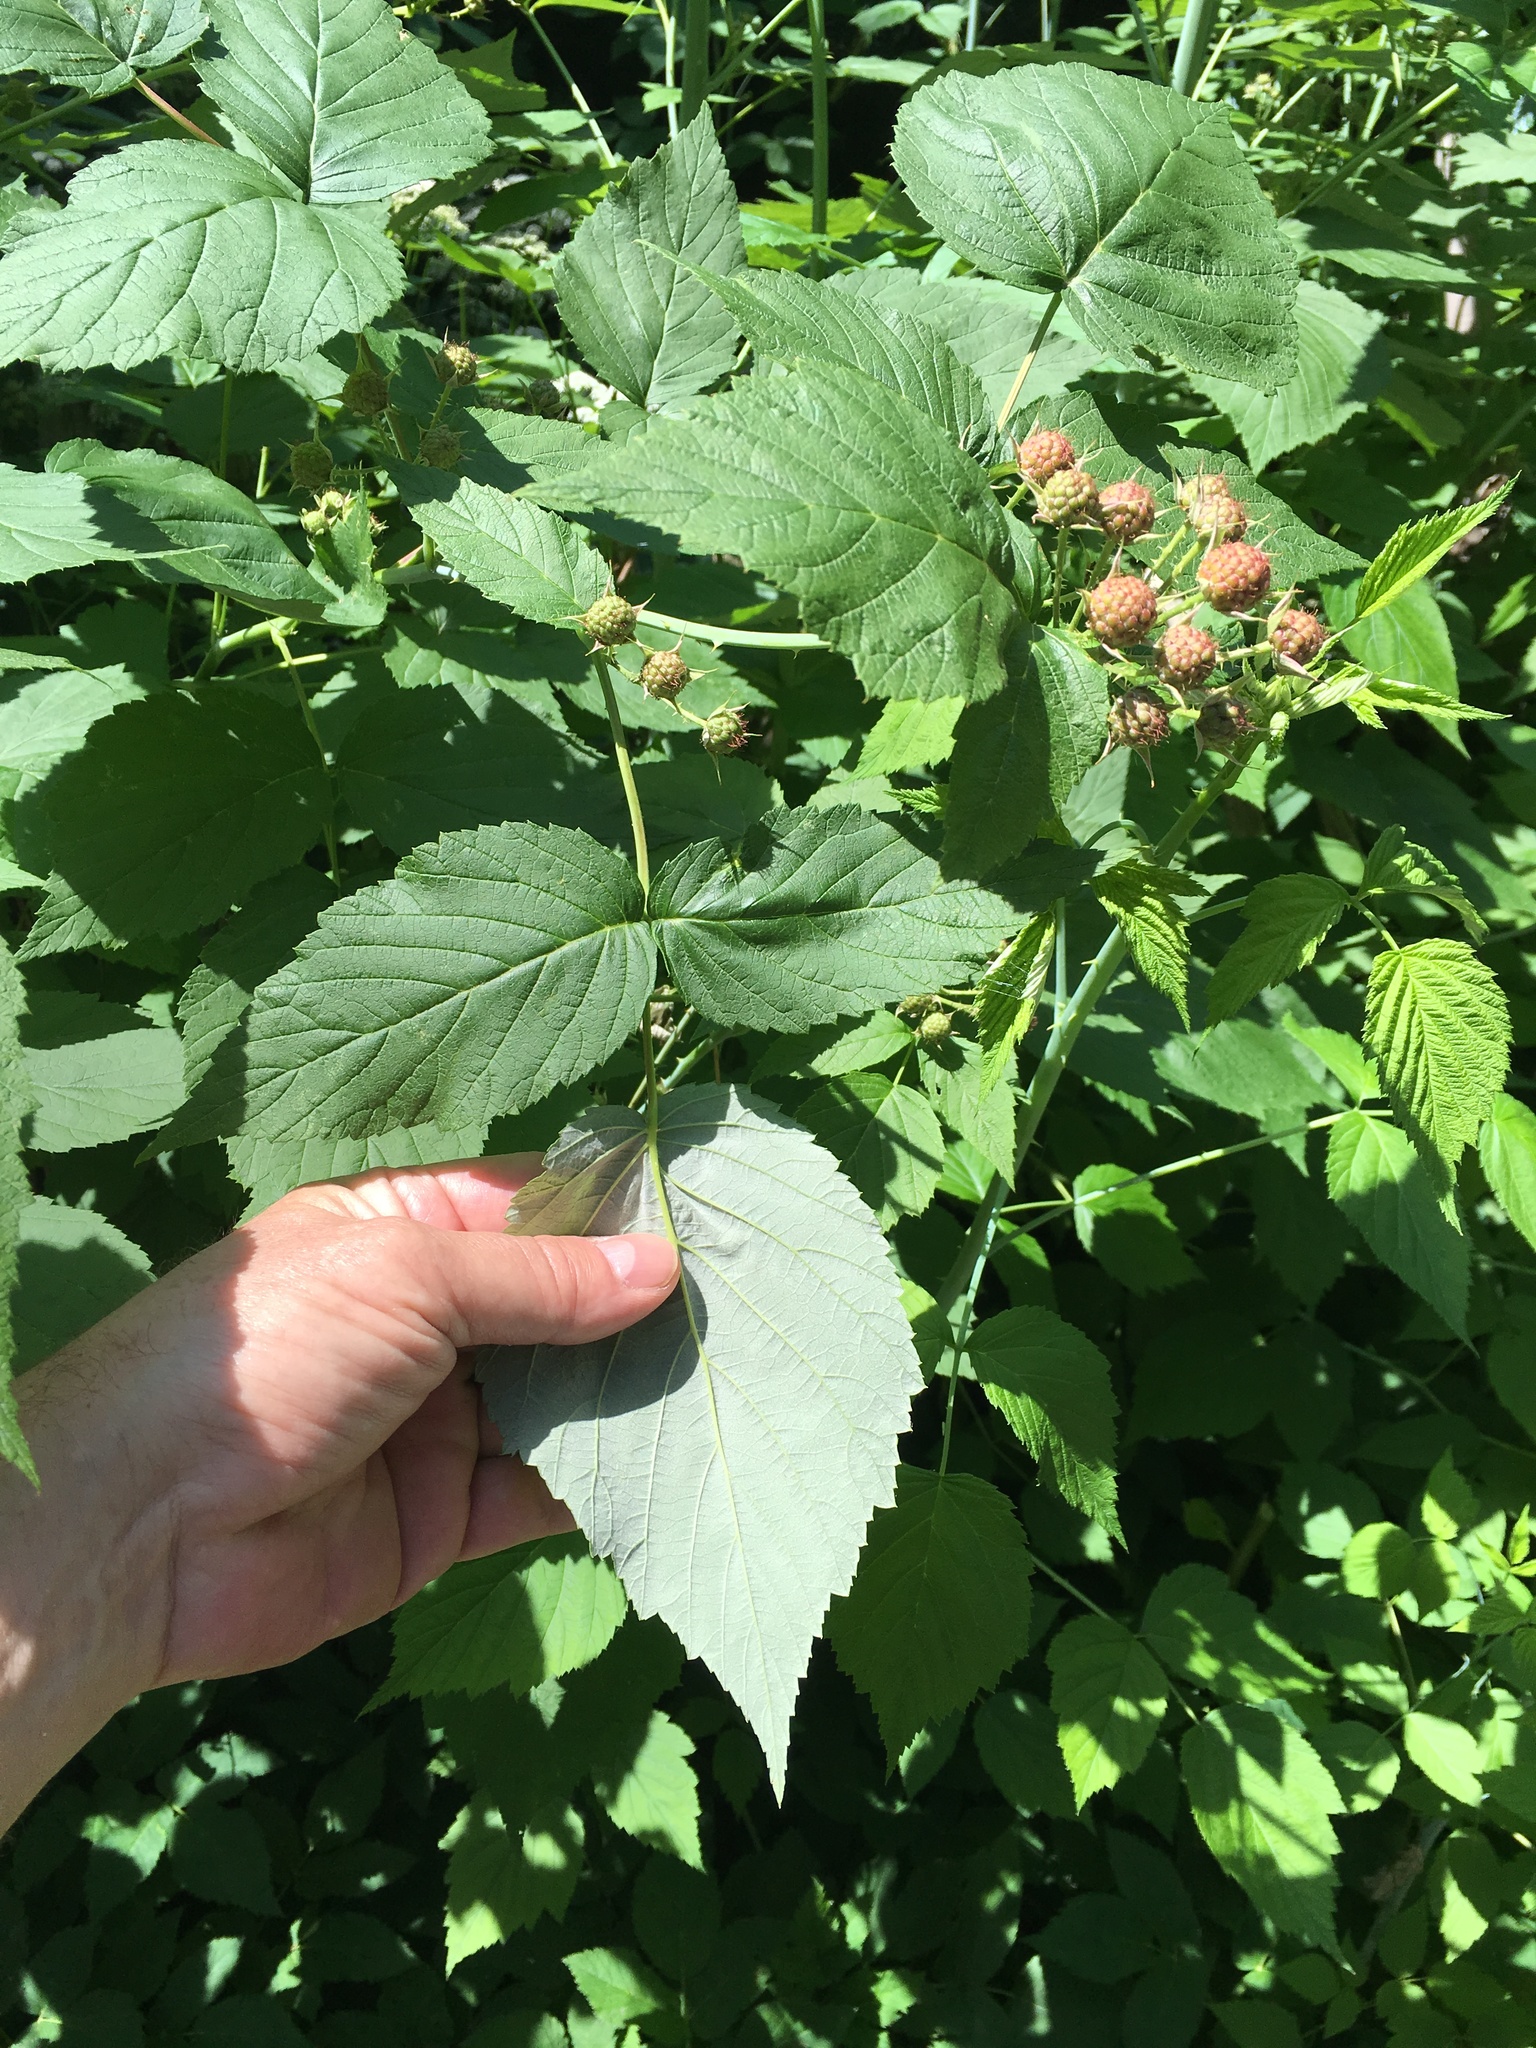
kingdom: Plantae
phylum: Tracheophyta
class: Magnoliopsida
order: Rosales
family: Rosaceae
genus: Rubus
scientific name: Rubus occidentalis
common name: Black raspberry
